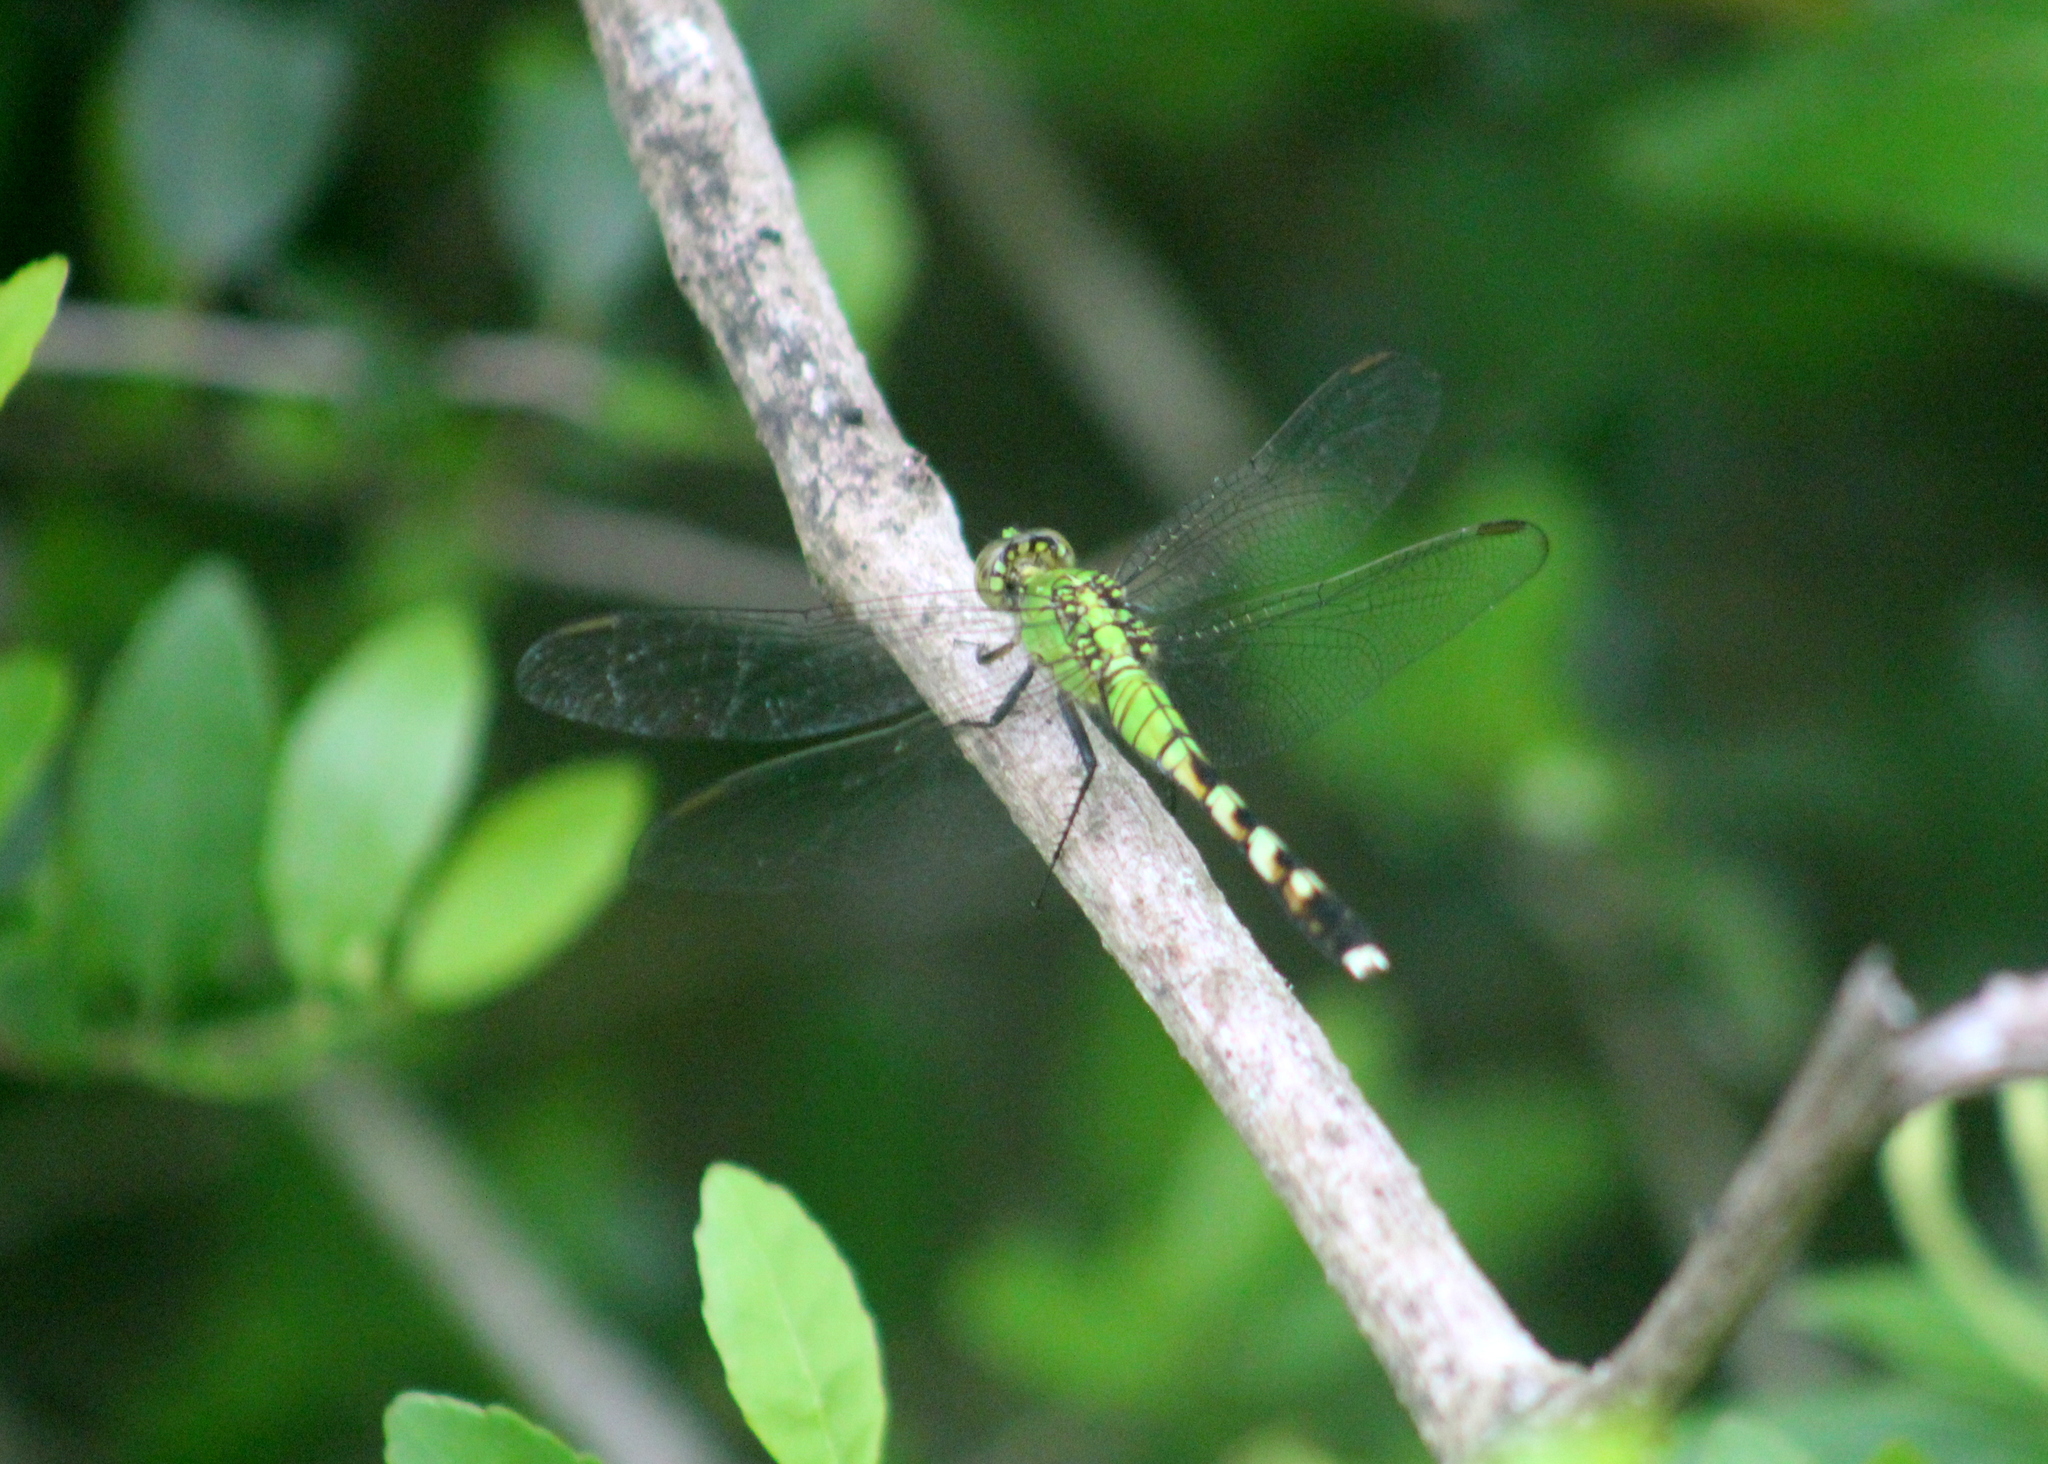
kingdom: Animalia
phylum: Arthropoda
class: Insecta
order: Odonata
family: Libellulidae
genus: Erythemis
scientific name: Erythemis simplicicollis
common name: Eastern pondhawk
